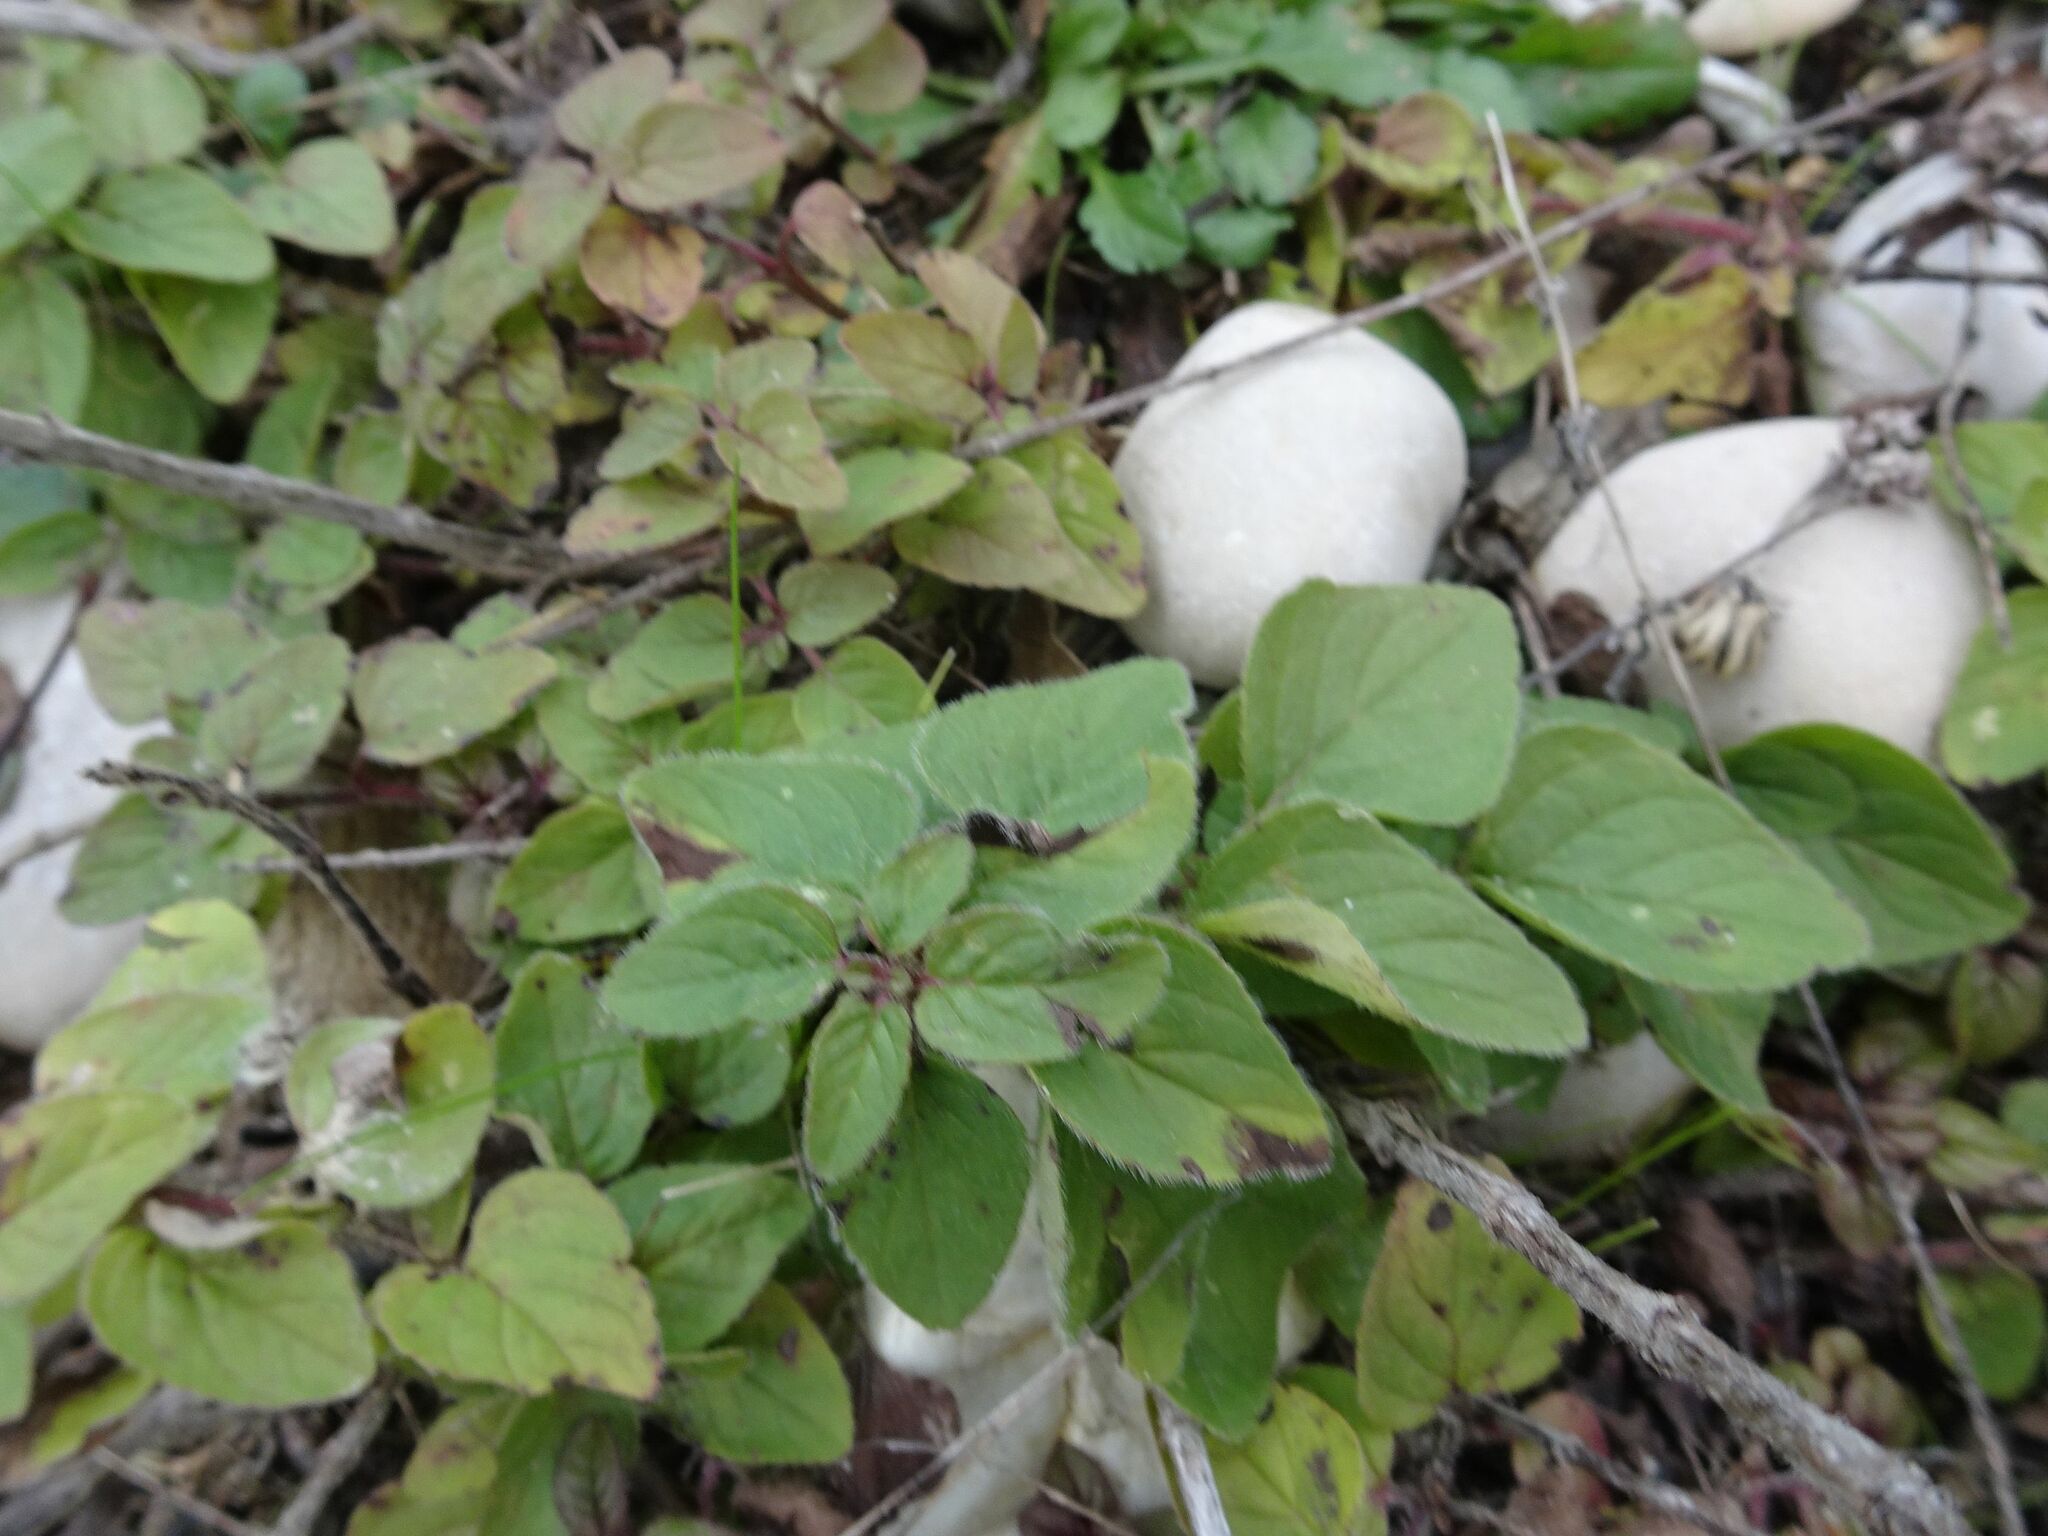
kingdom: Plantae
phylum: Tracheophyta
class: Magnoliopsida
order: Lamiales
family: Lamiaceae
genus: Origanum
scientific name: Origanum vulgare
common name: Wild marjoram
